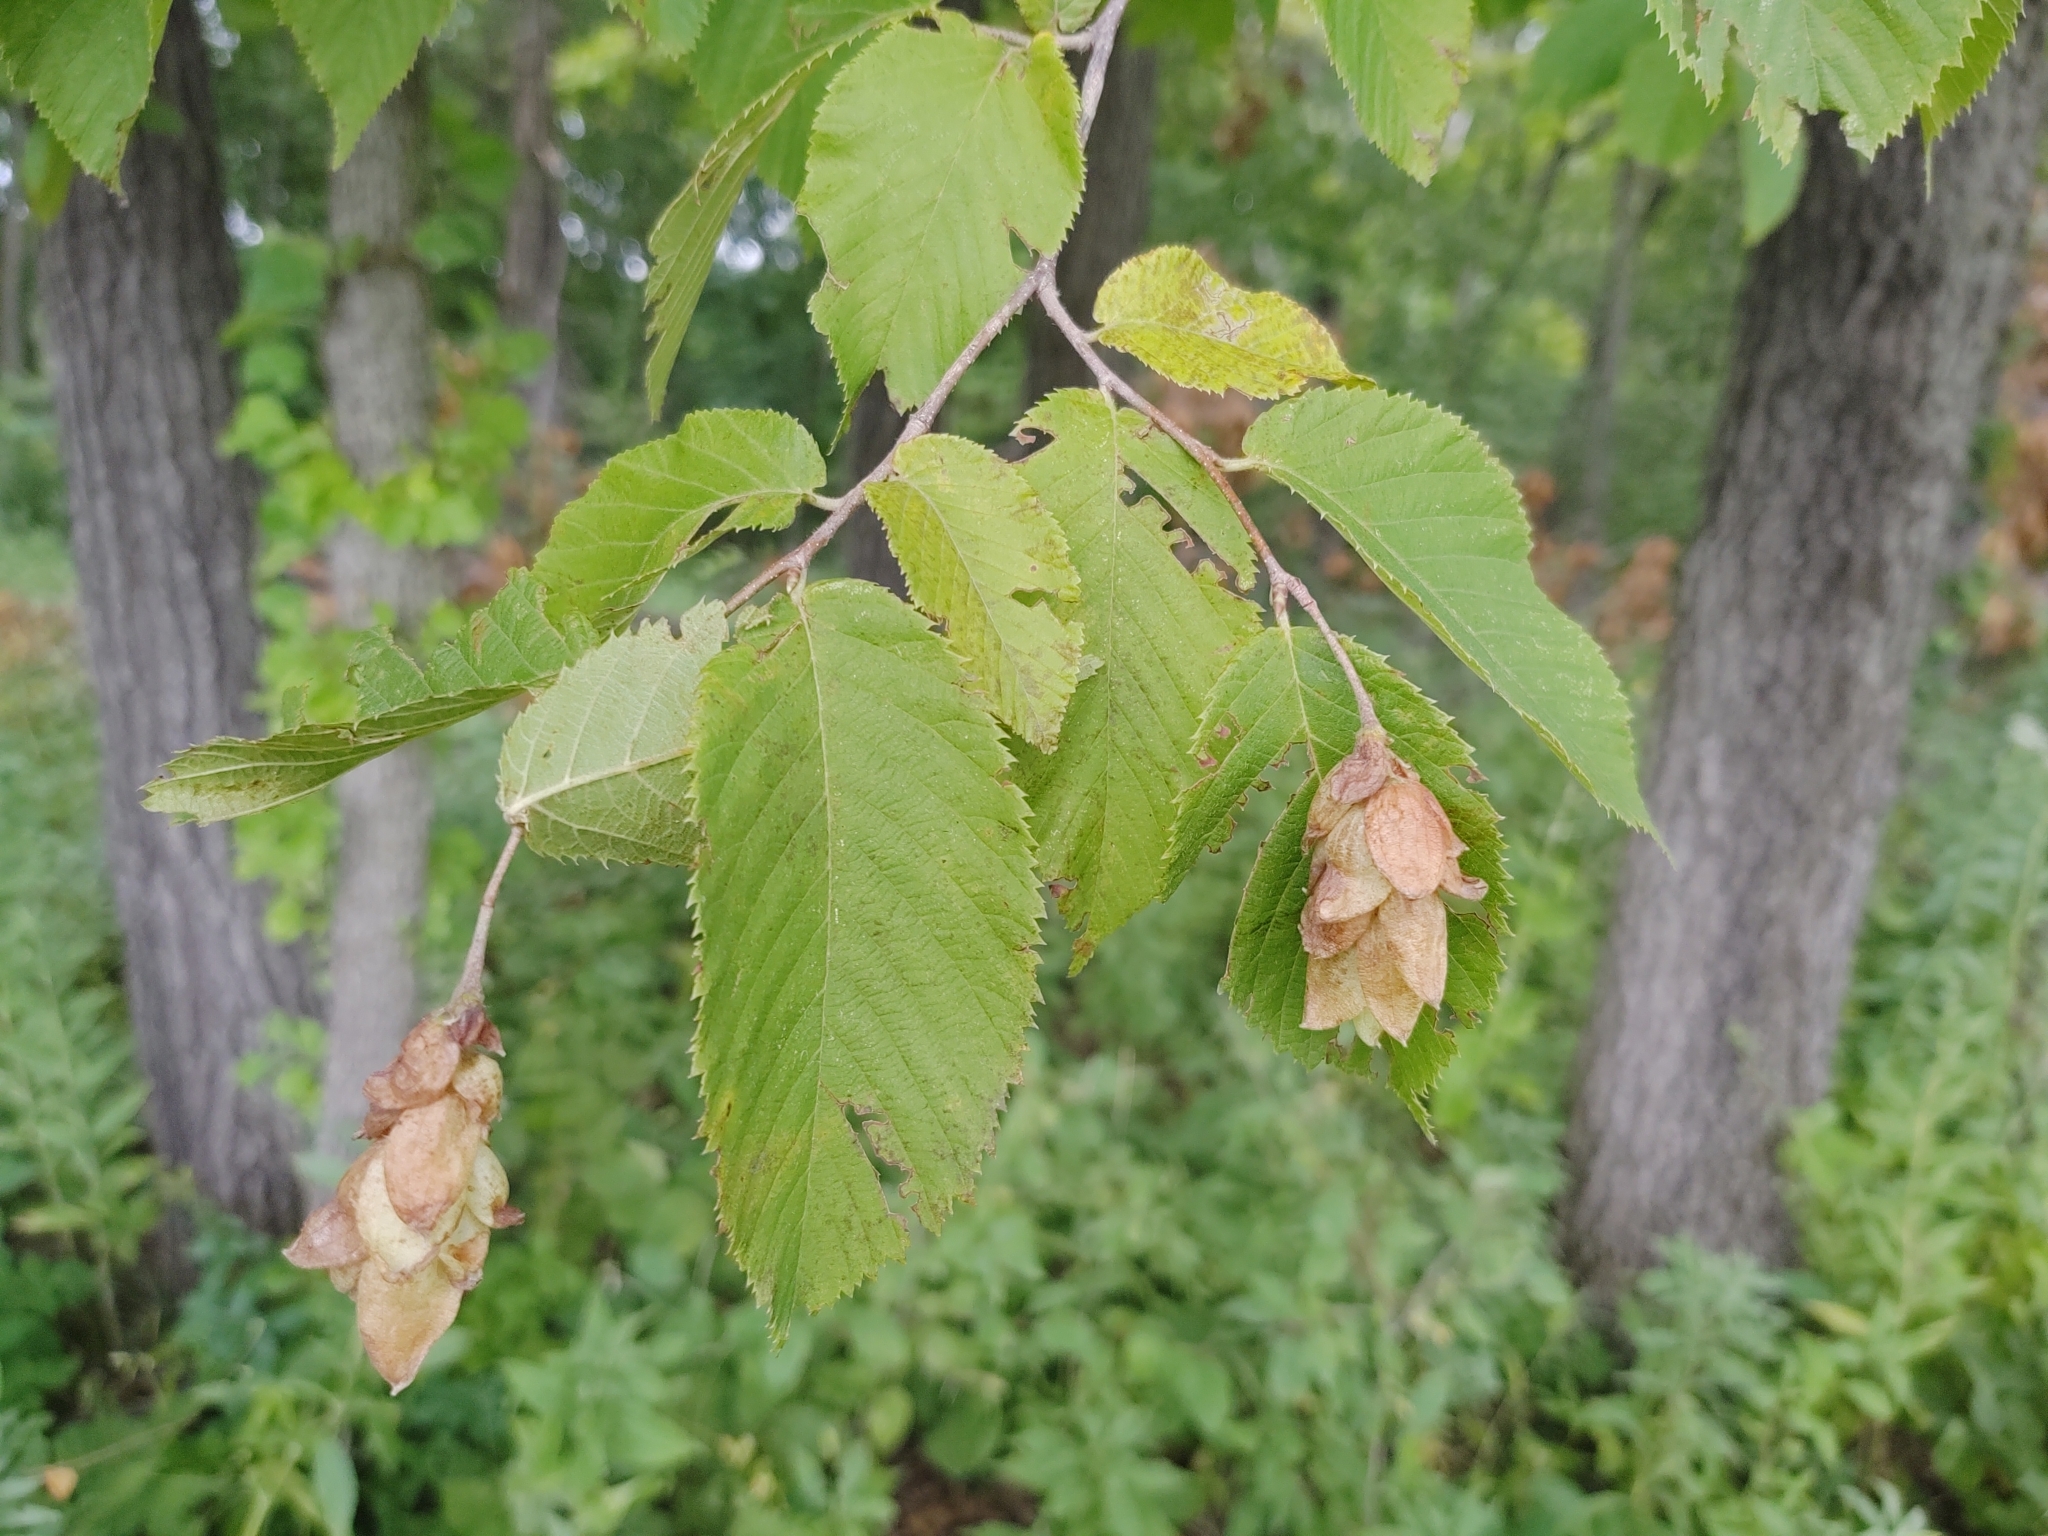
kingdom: Plantae
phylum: Tracheophyta
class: Magnoliopsida
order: Fagales
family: Betulaceae
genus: Ostrya
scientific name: Ostrya virginiana
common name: Ironwood
